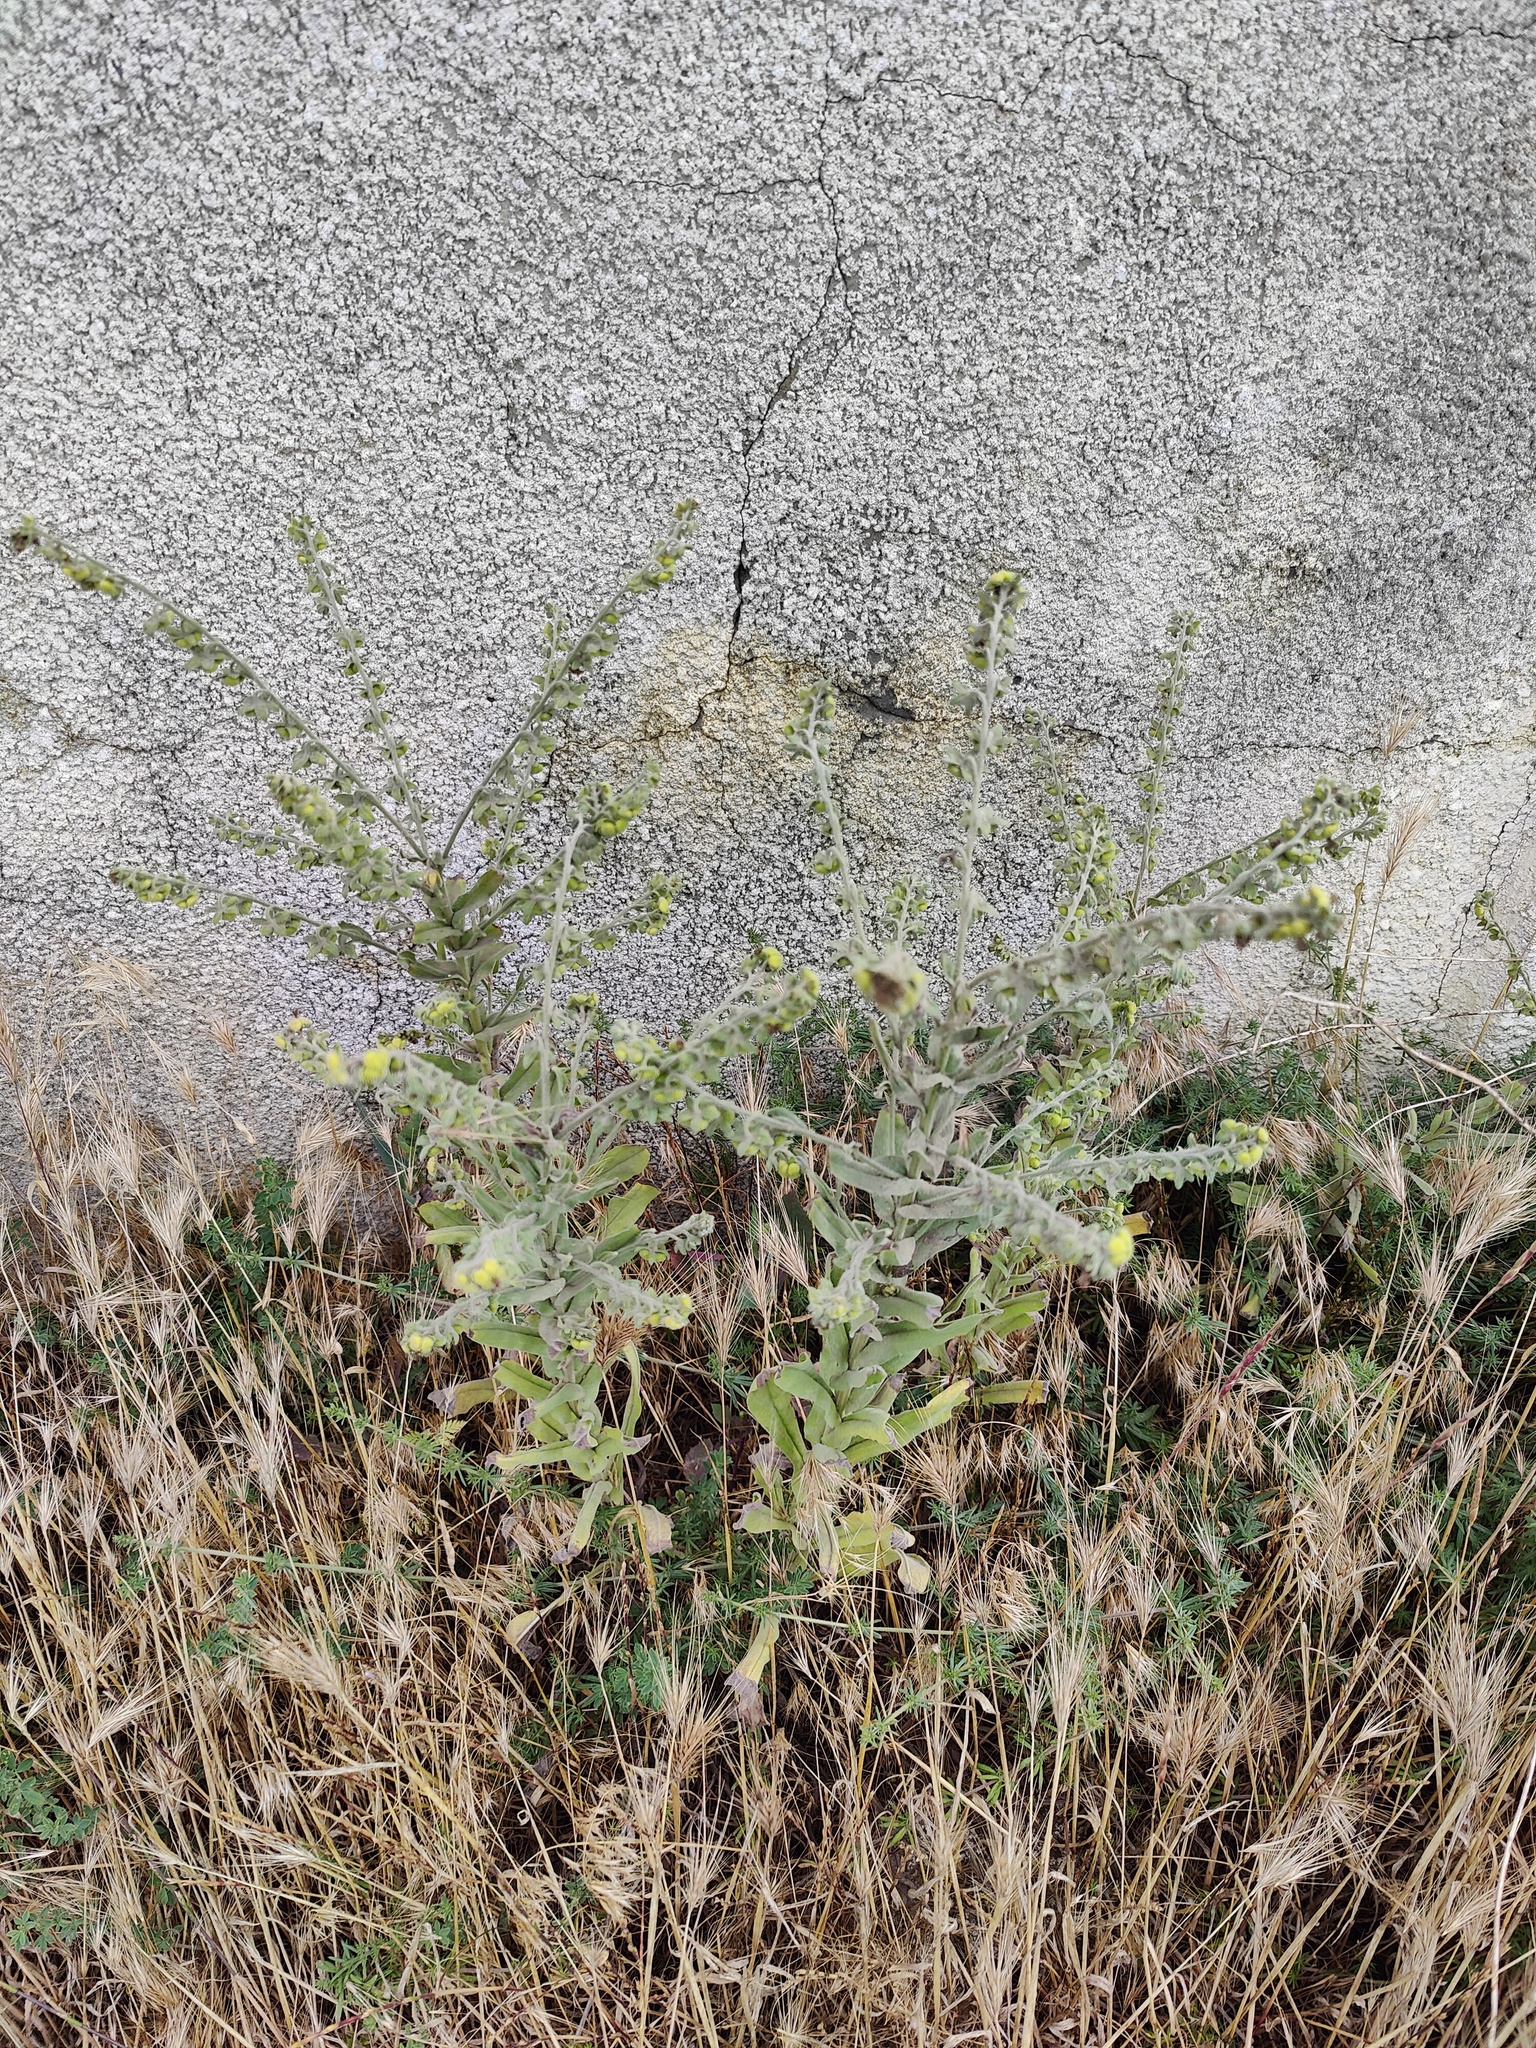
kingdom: Plantae
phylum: Tracheophyta
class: Magnoliopsida
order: Boraginales
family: Boraginaceae
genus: Cynoglossum
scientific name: Cynoglossum creticum
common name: Blue hound's tongue
